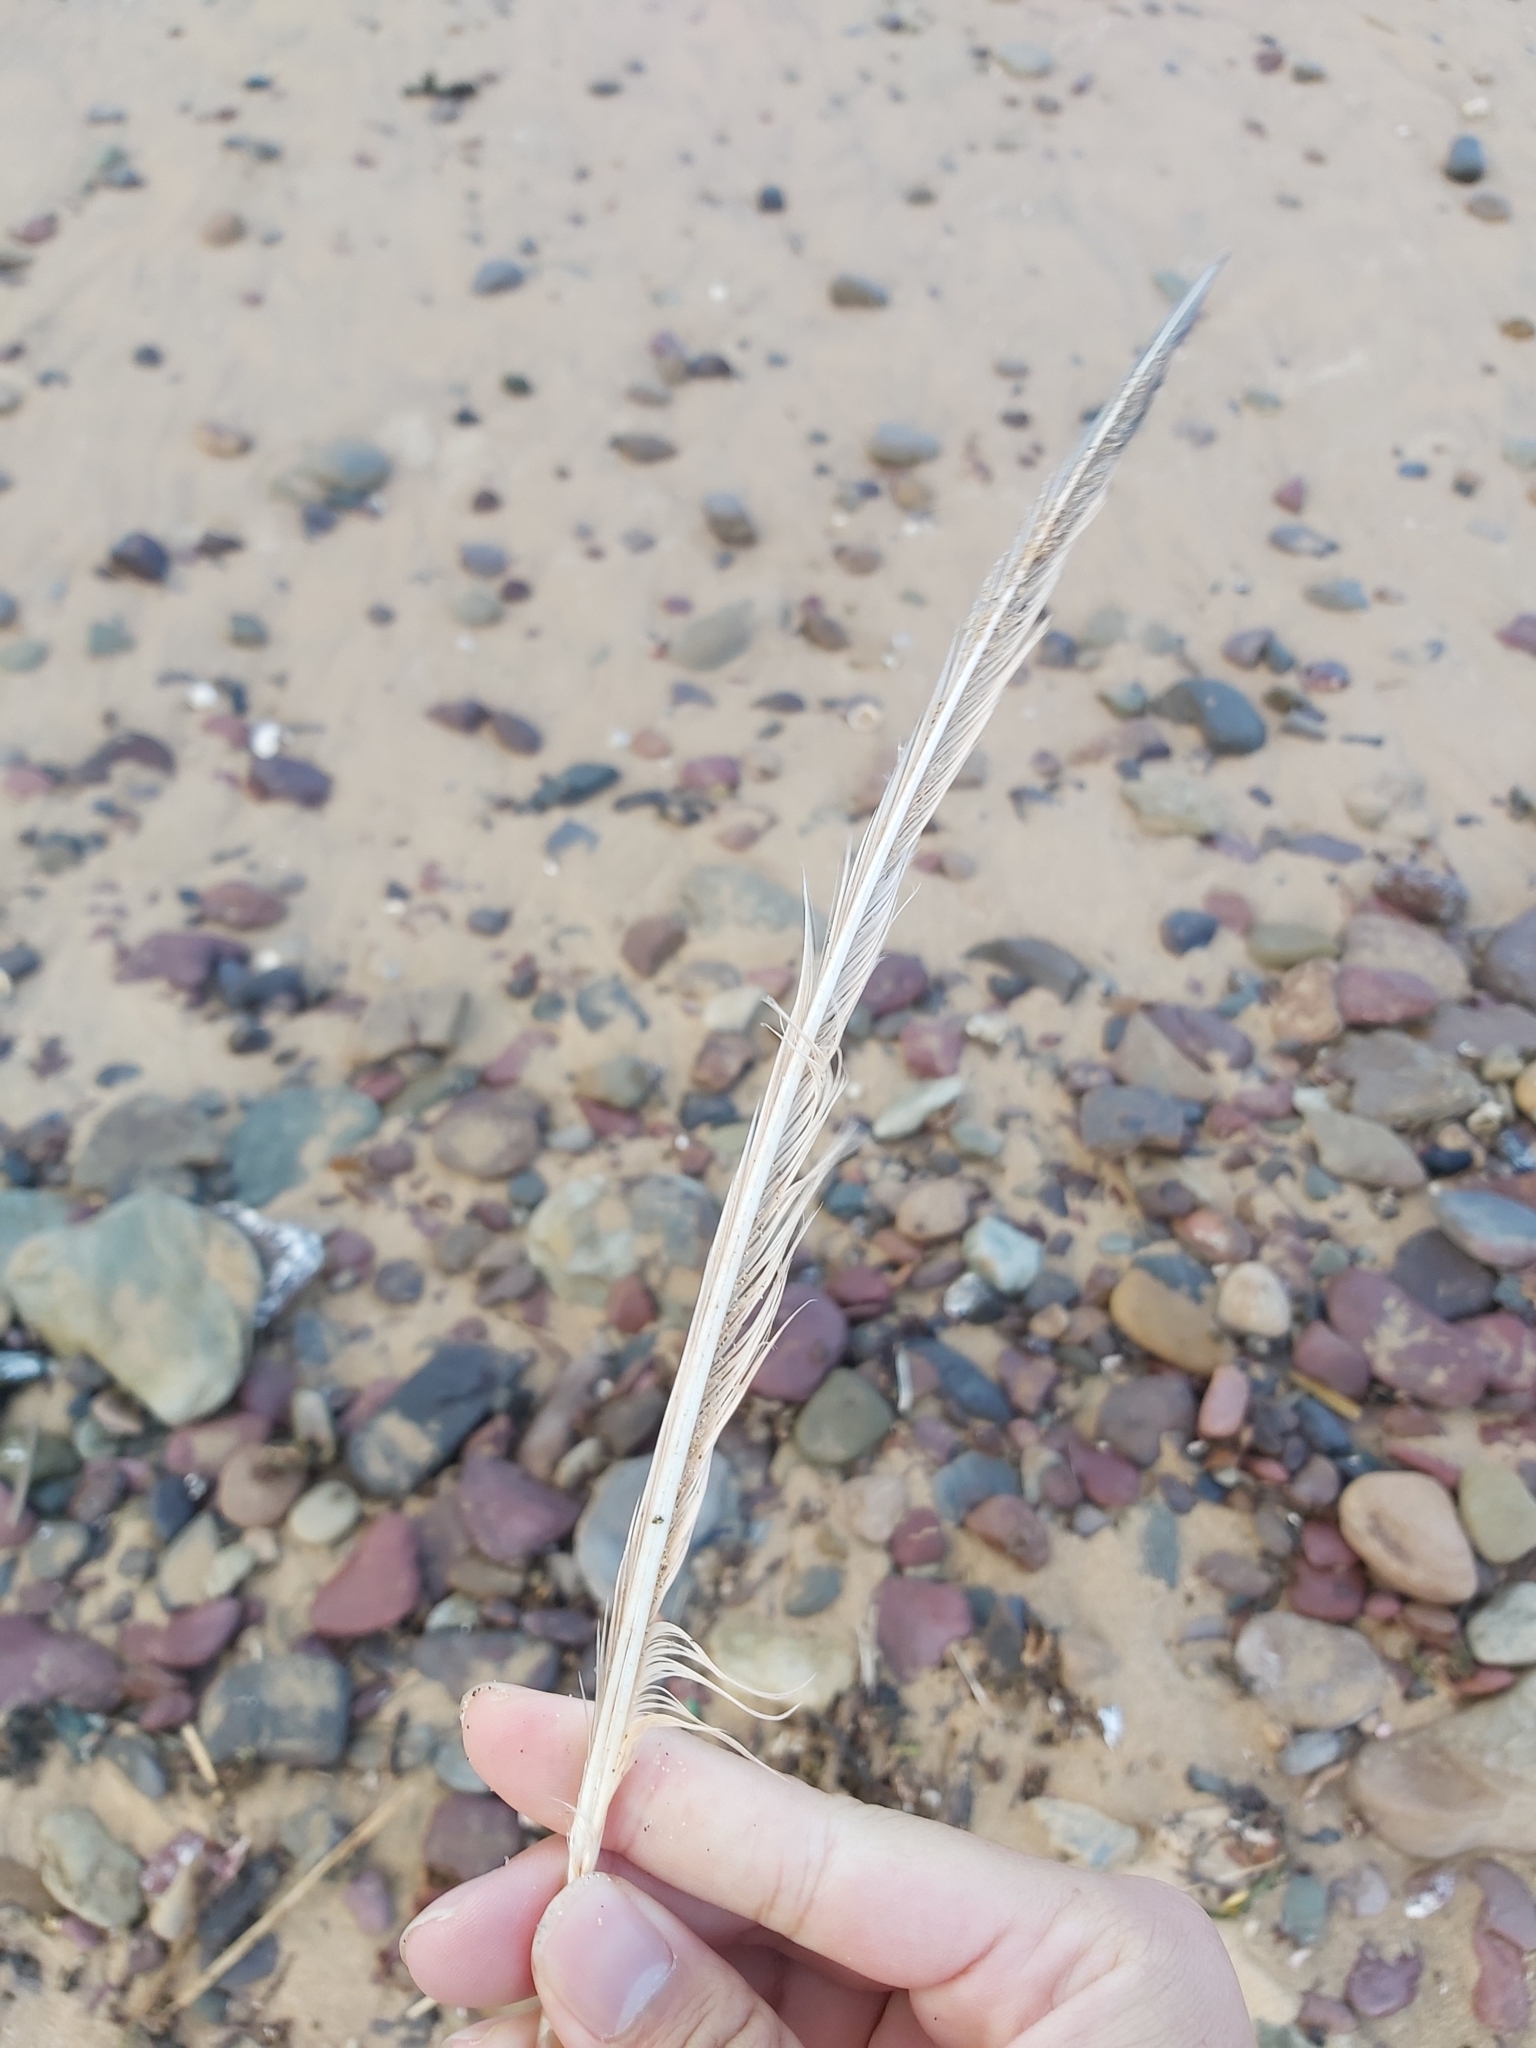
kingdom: Animalia
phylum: Chordata
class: Aves
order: Charadriiformes
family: Laridae
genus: Thalasseus
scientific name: Thalasseus bergii
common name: Greater crested tern
